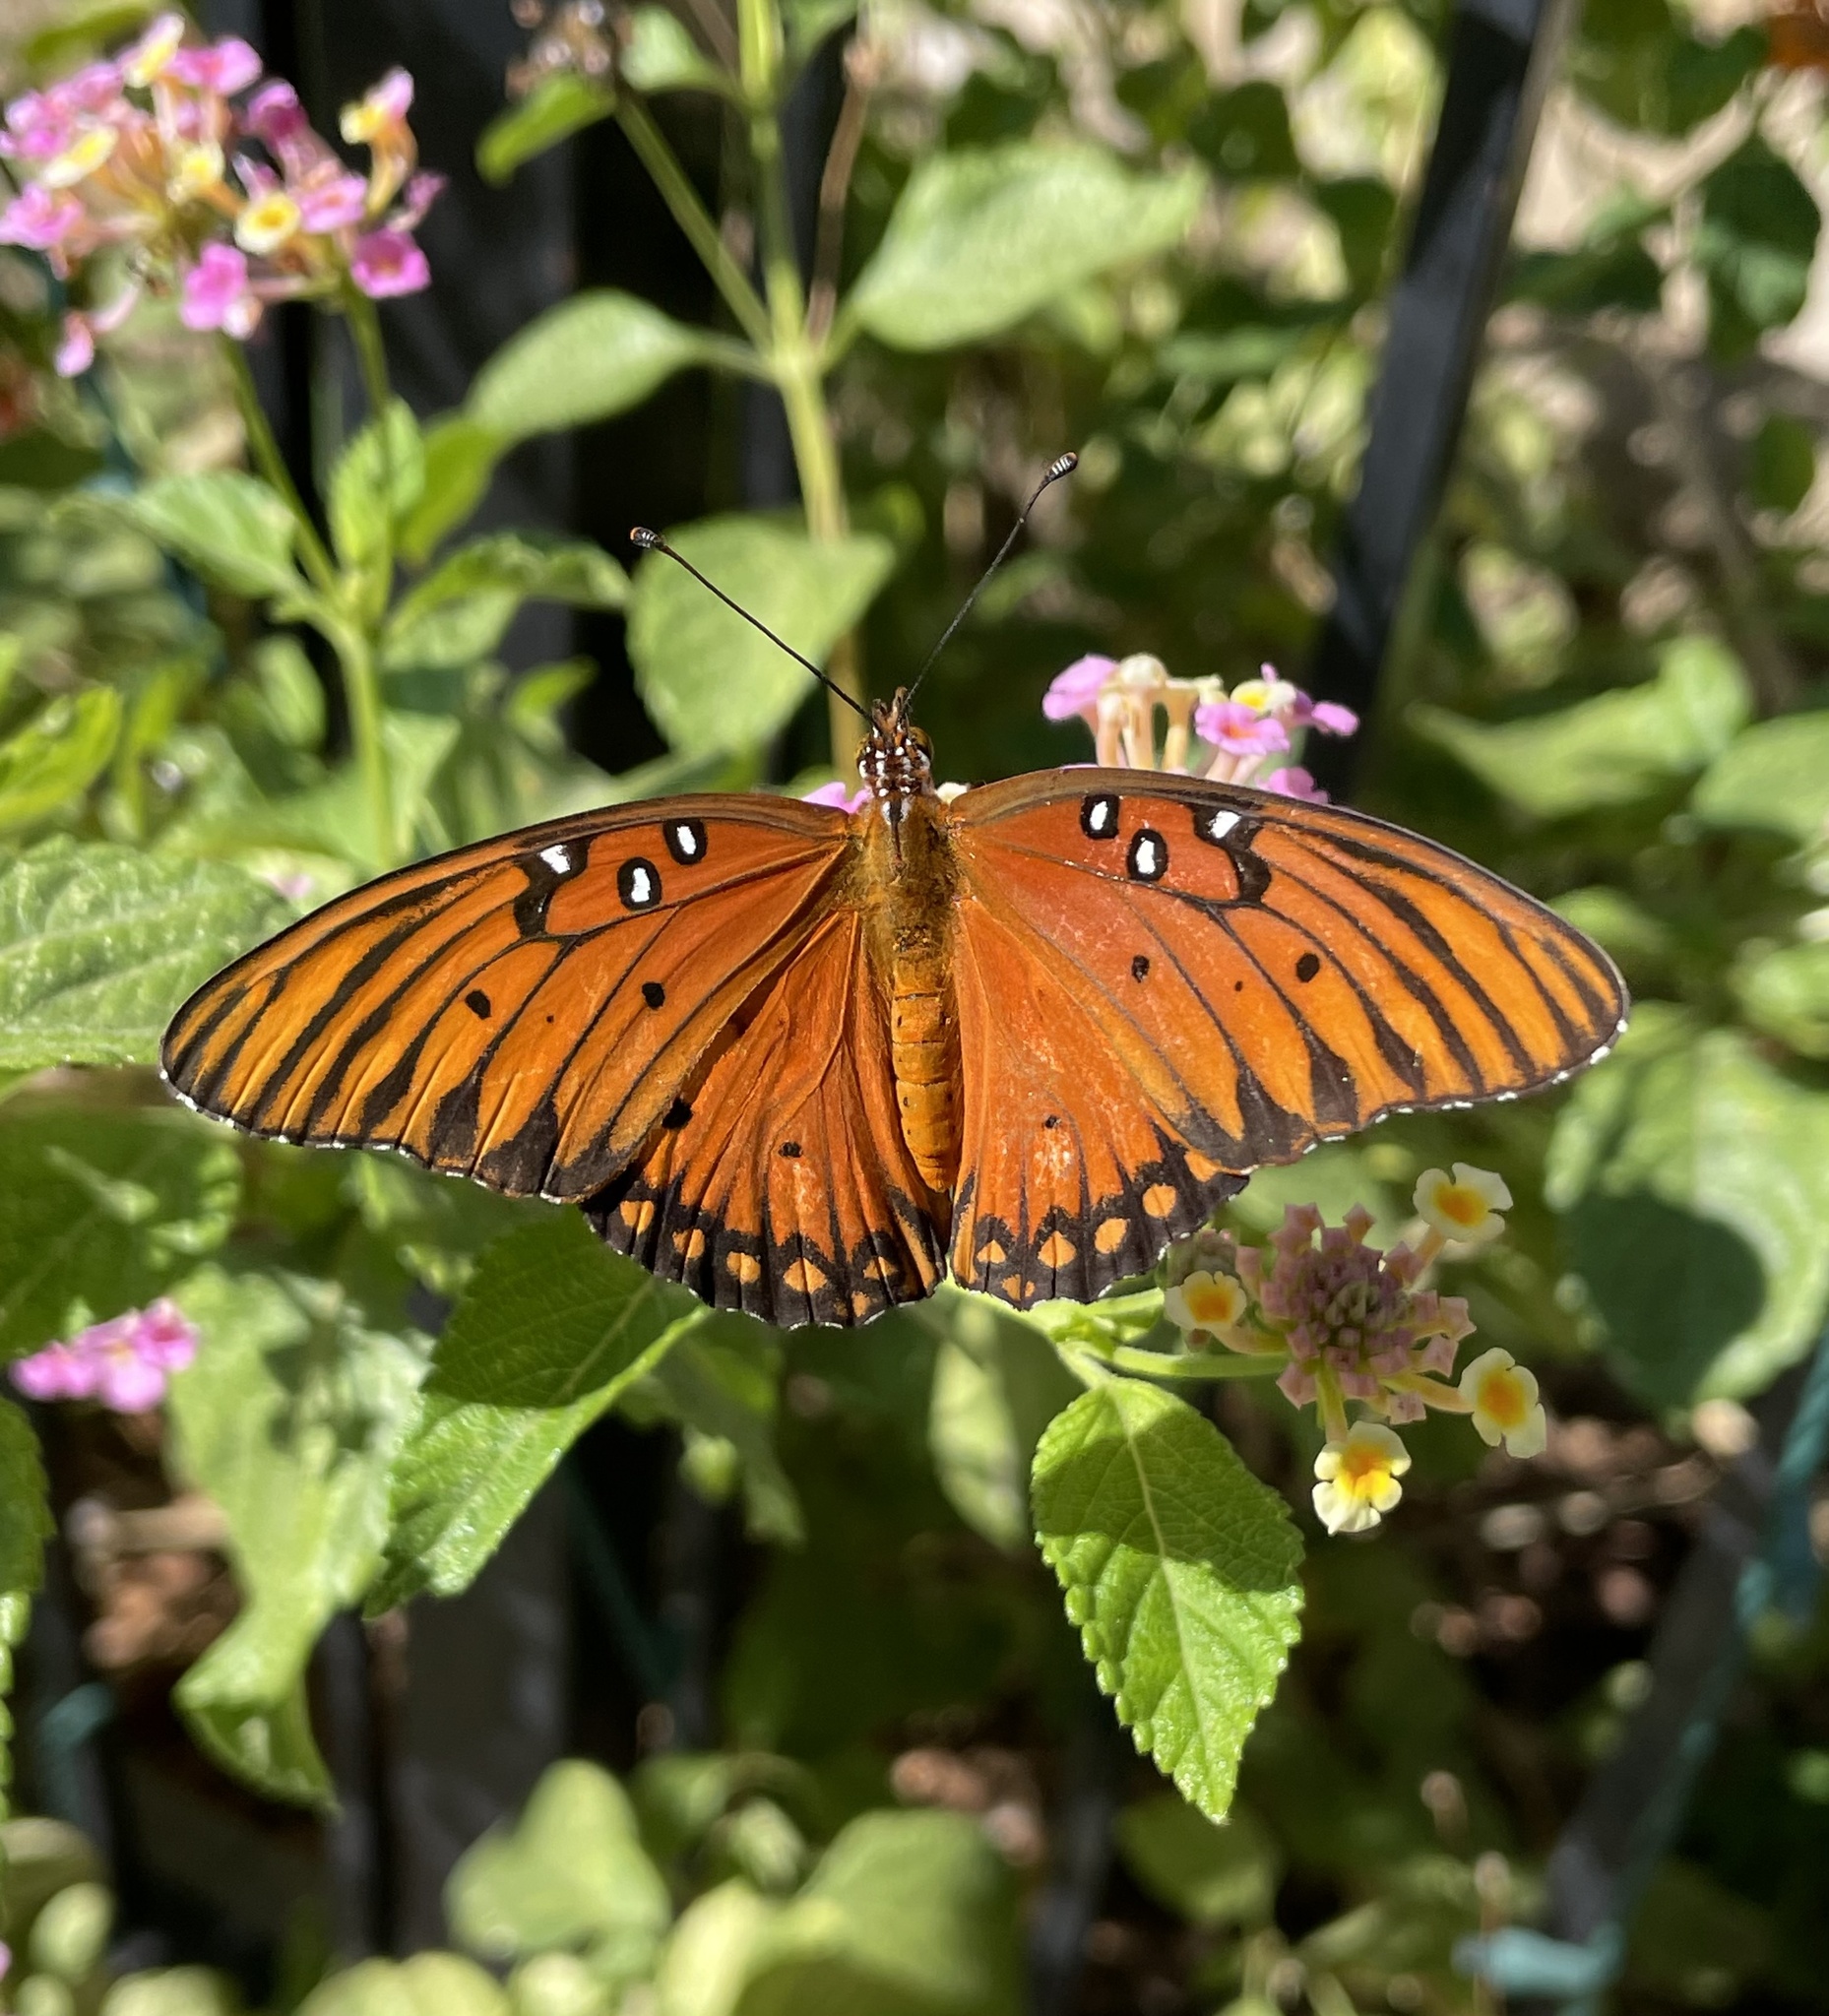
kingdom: Animalia
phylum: Arthropoda
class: Insecta
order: Lepidoptera
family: Nymphalidae
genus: Dione
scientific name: Dione vanillae
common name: Gulf fritillary
